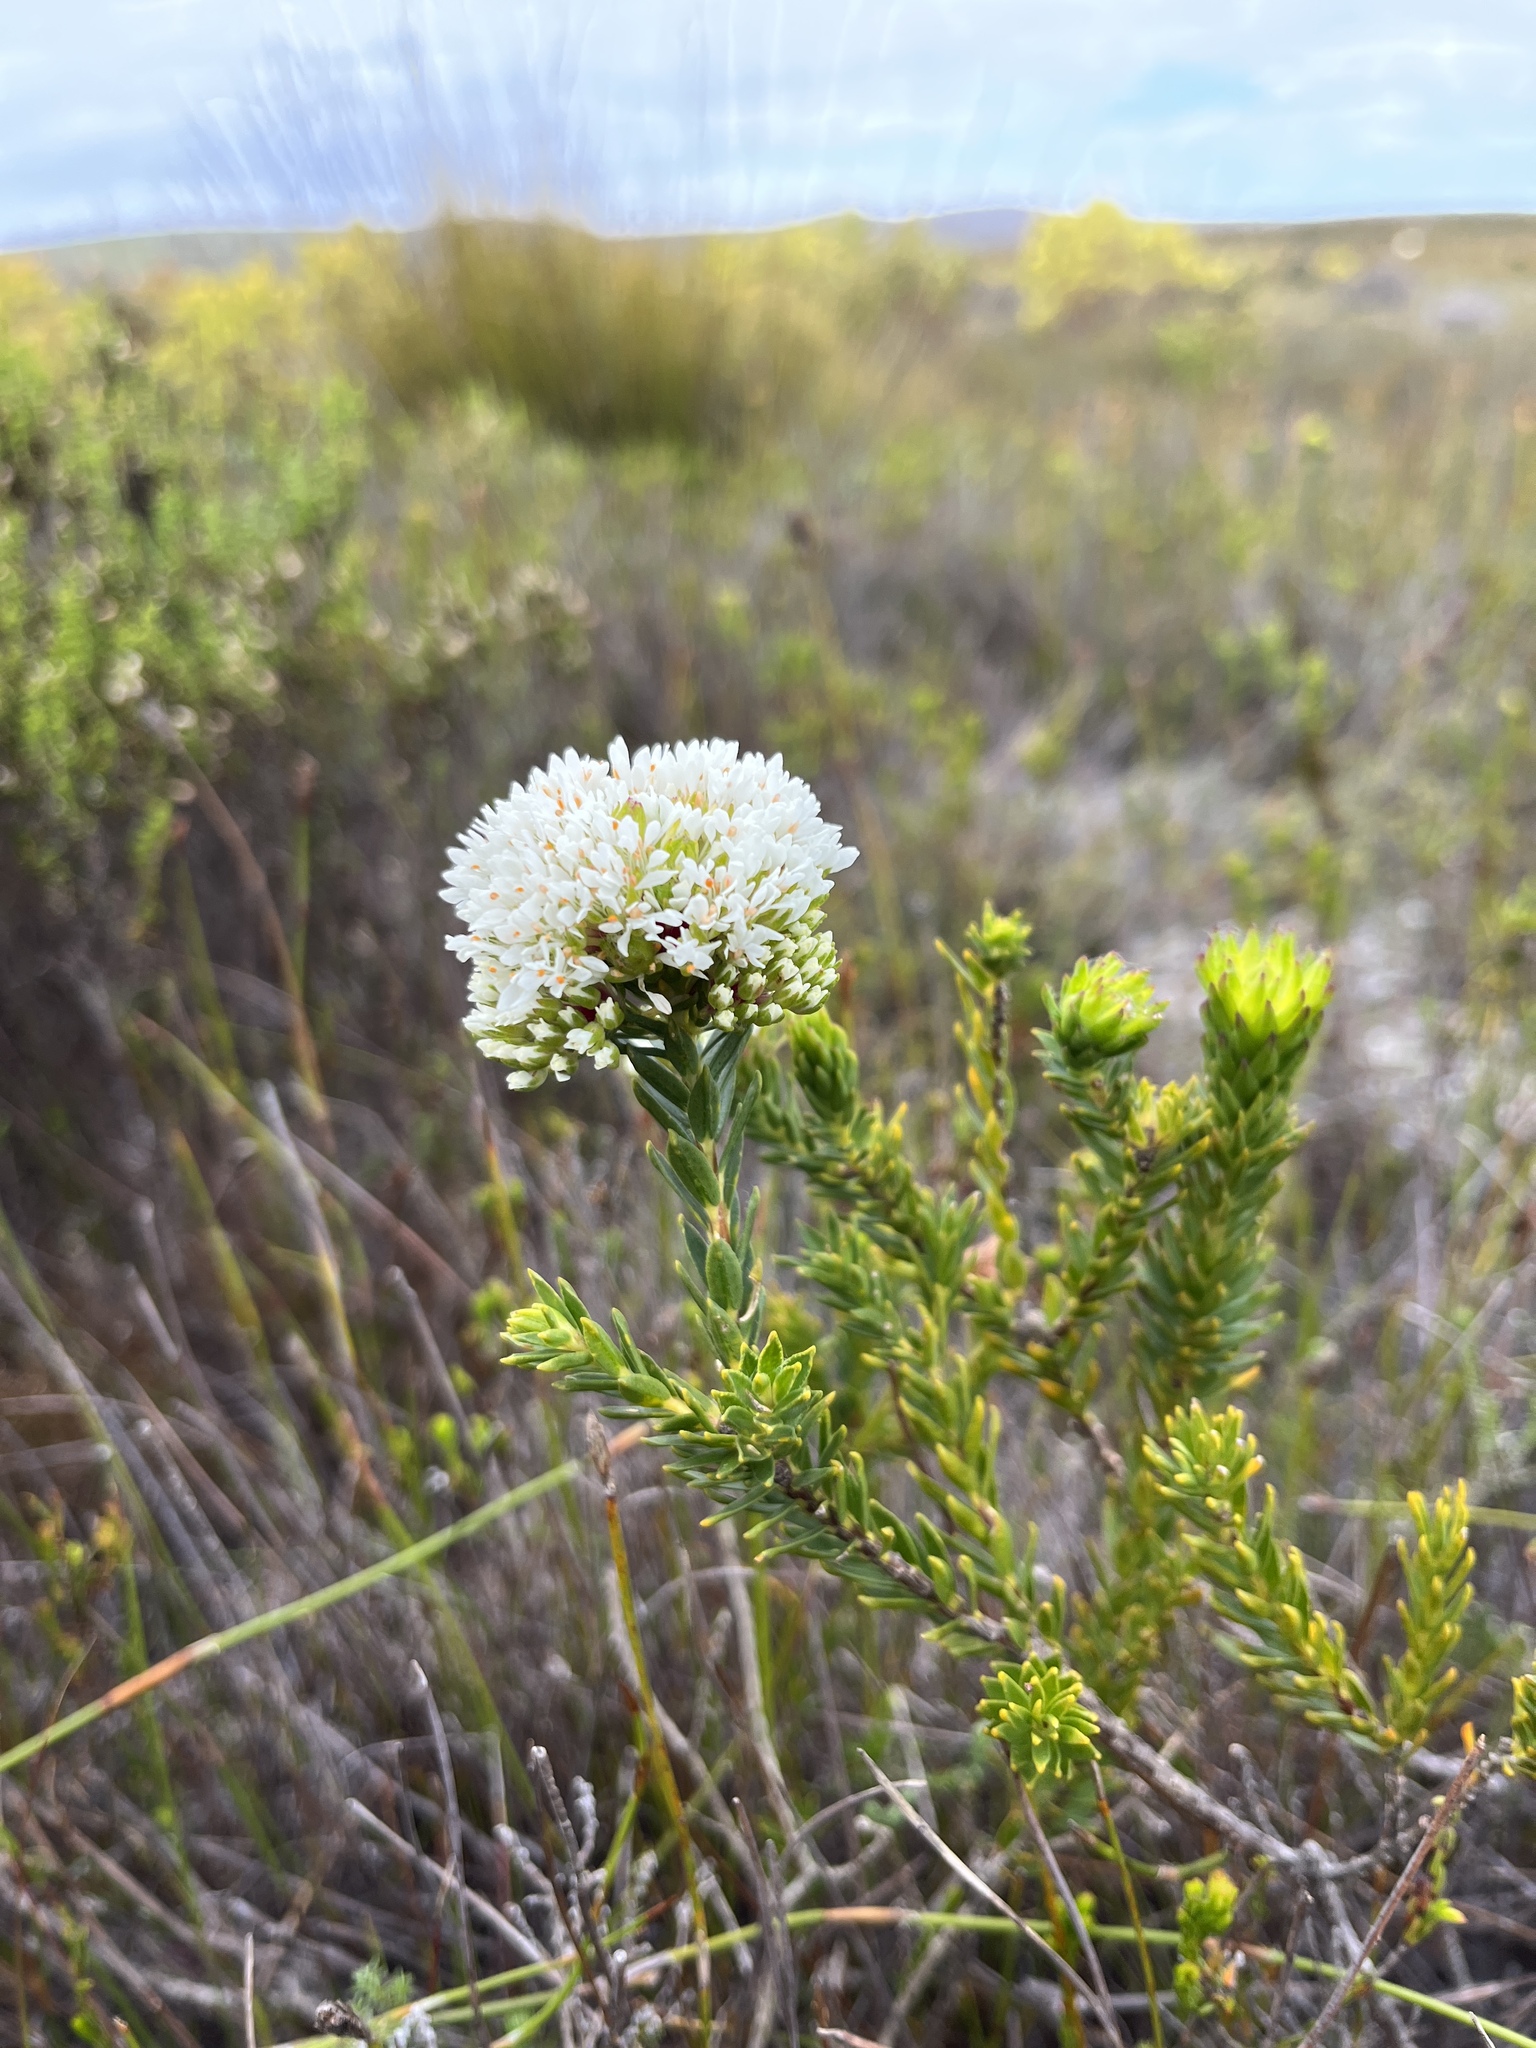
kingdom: Plantae
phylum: Tracheophyta
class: Magnoliopsida
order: Sapindales
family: Rutaceae
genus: Agathosma
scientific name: Agathosma bifida
